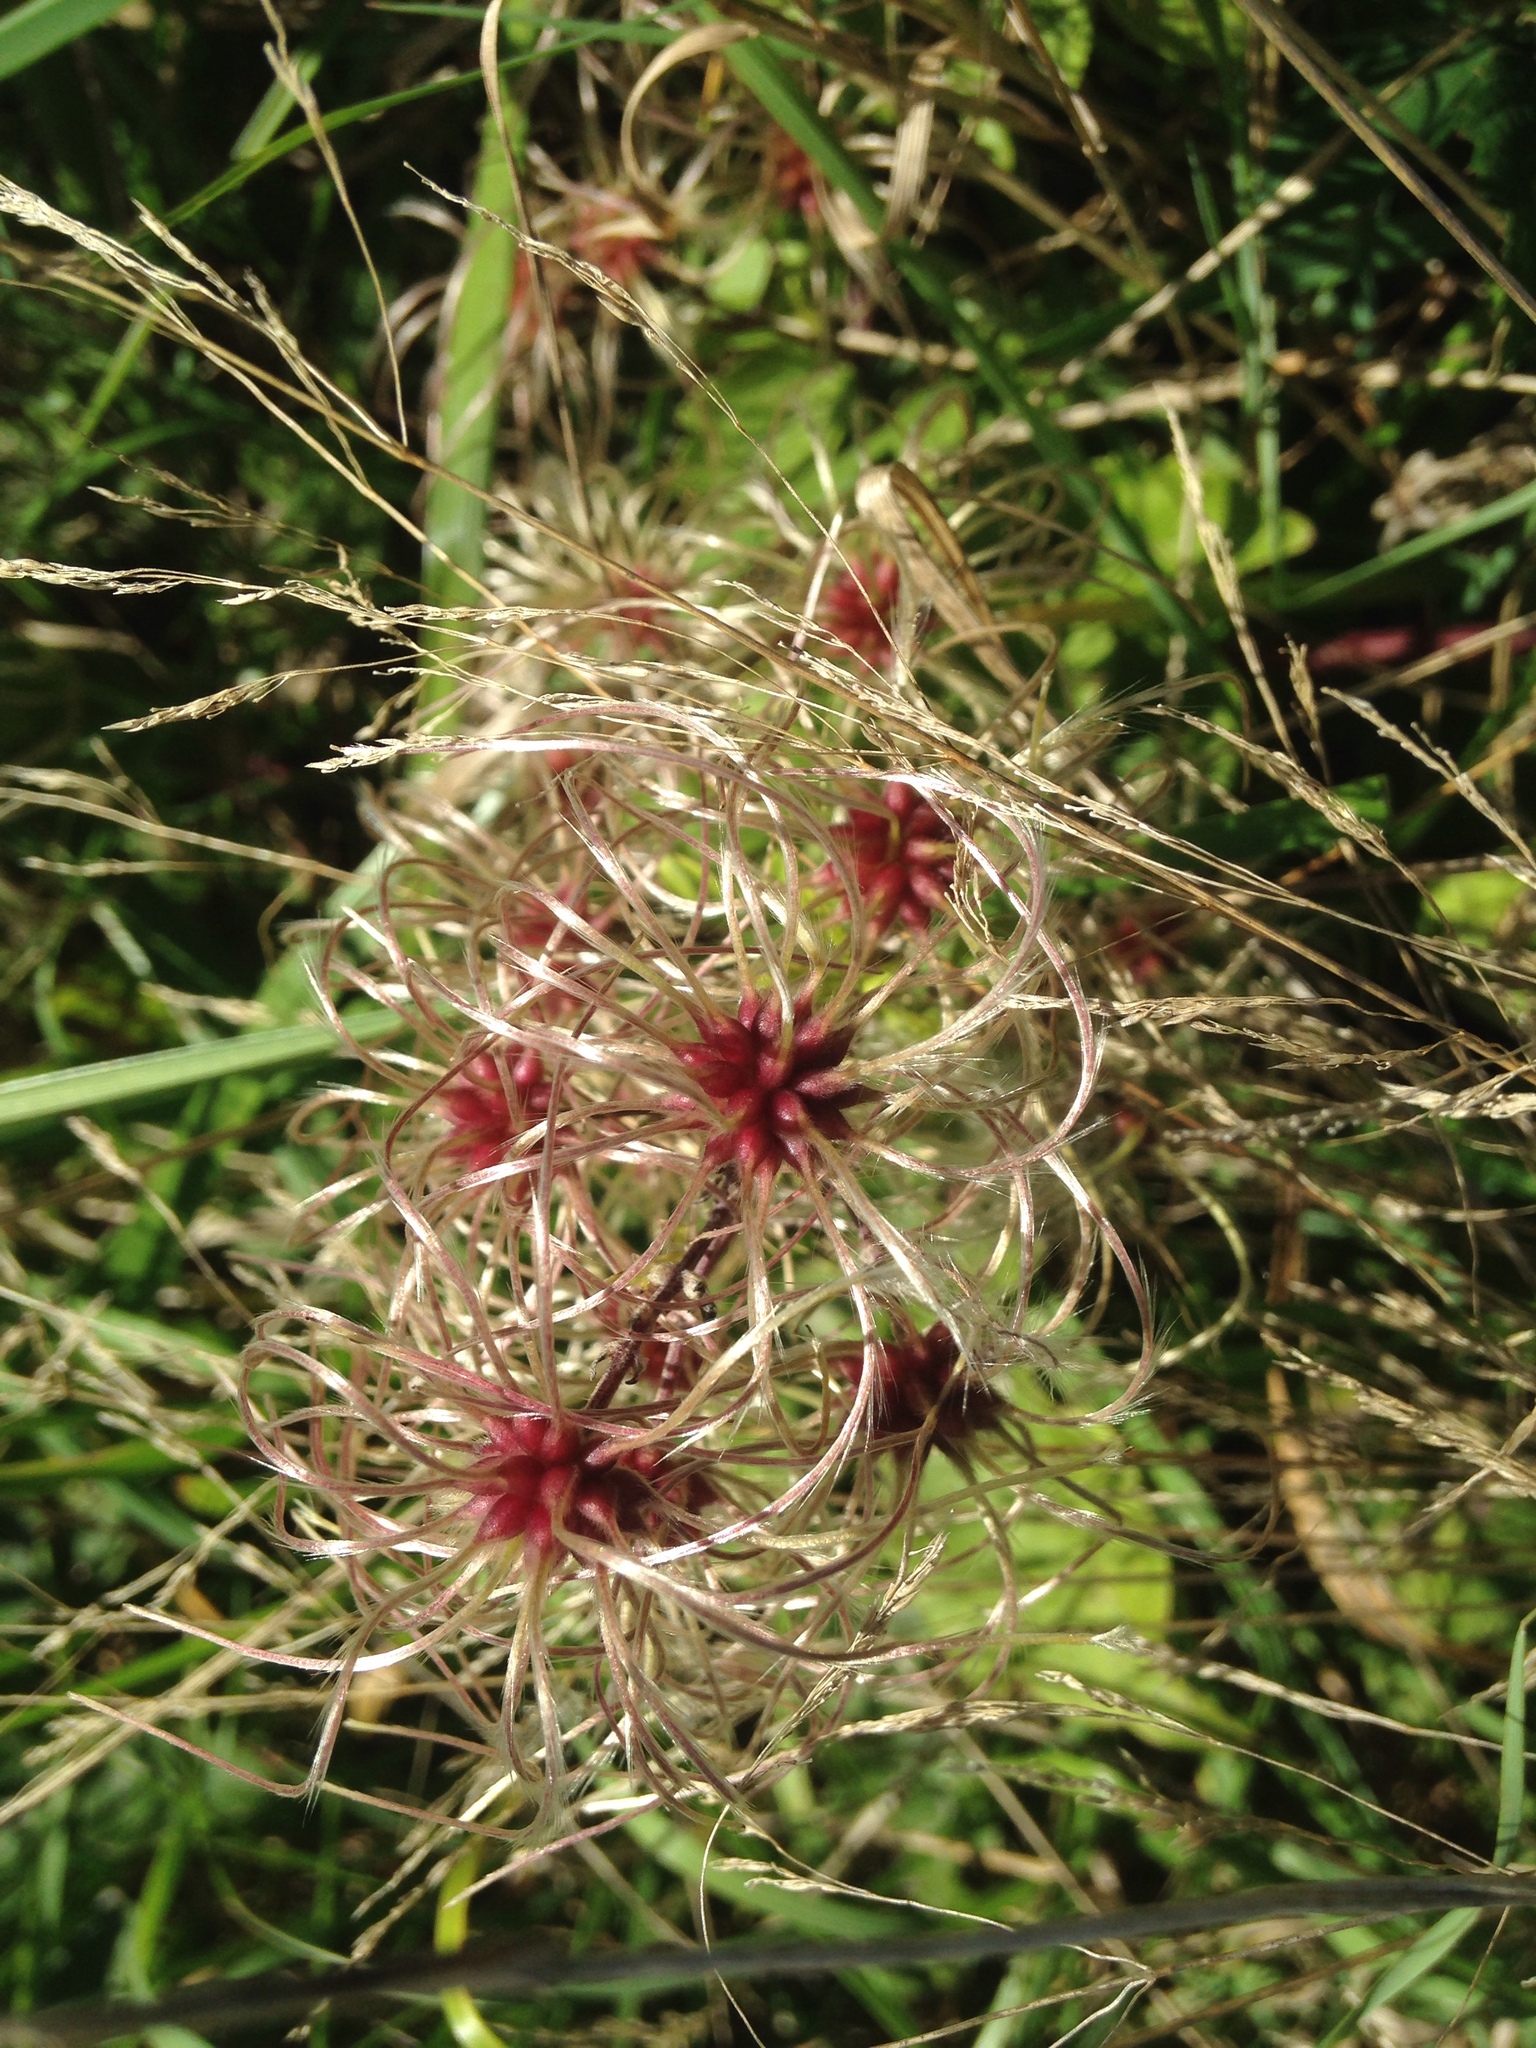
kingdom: Plantae
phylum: Tracheophyta
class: Magnoliopsida
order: Ranunculales
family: Ranunculaceae
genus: Clematis
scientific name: Clematis vitalba
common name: Evergreen clematis
